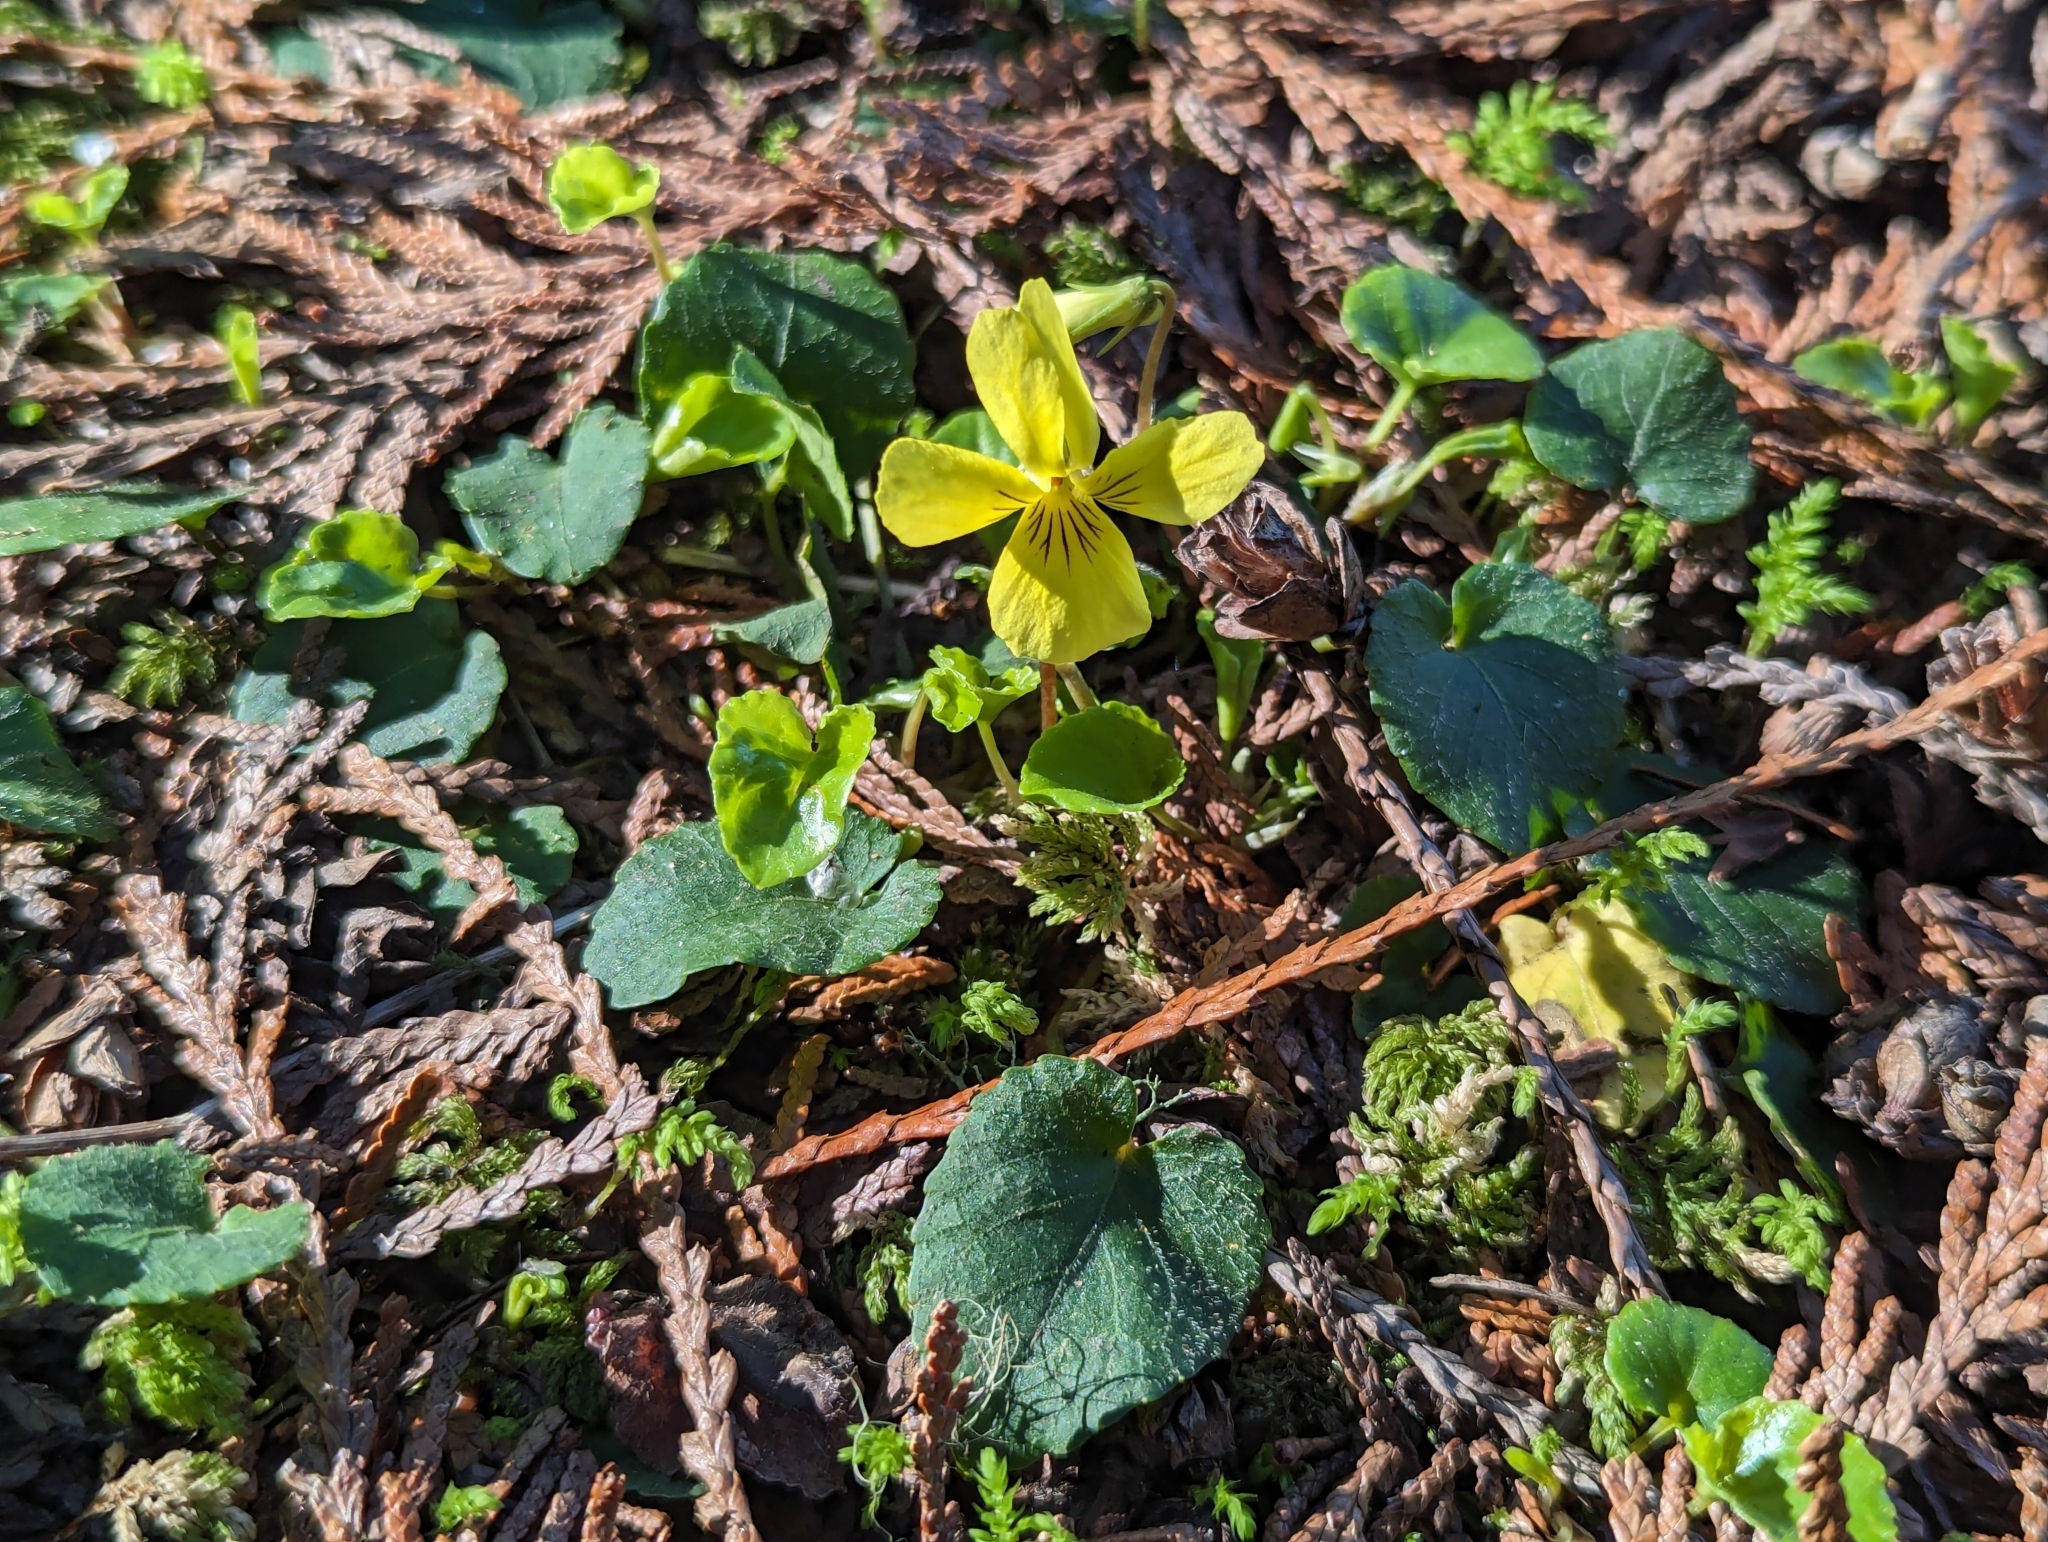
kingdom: Plantae
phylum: Tracheophyta
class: Magnoliopsida
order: Malpighiales
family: Violaceae
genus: Viola
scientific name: Viola sempervirens
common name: Evergreen violet
